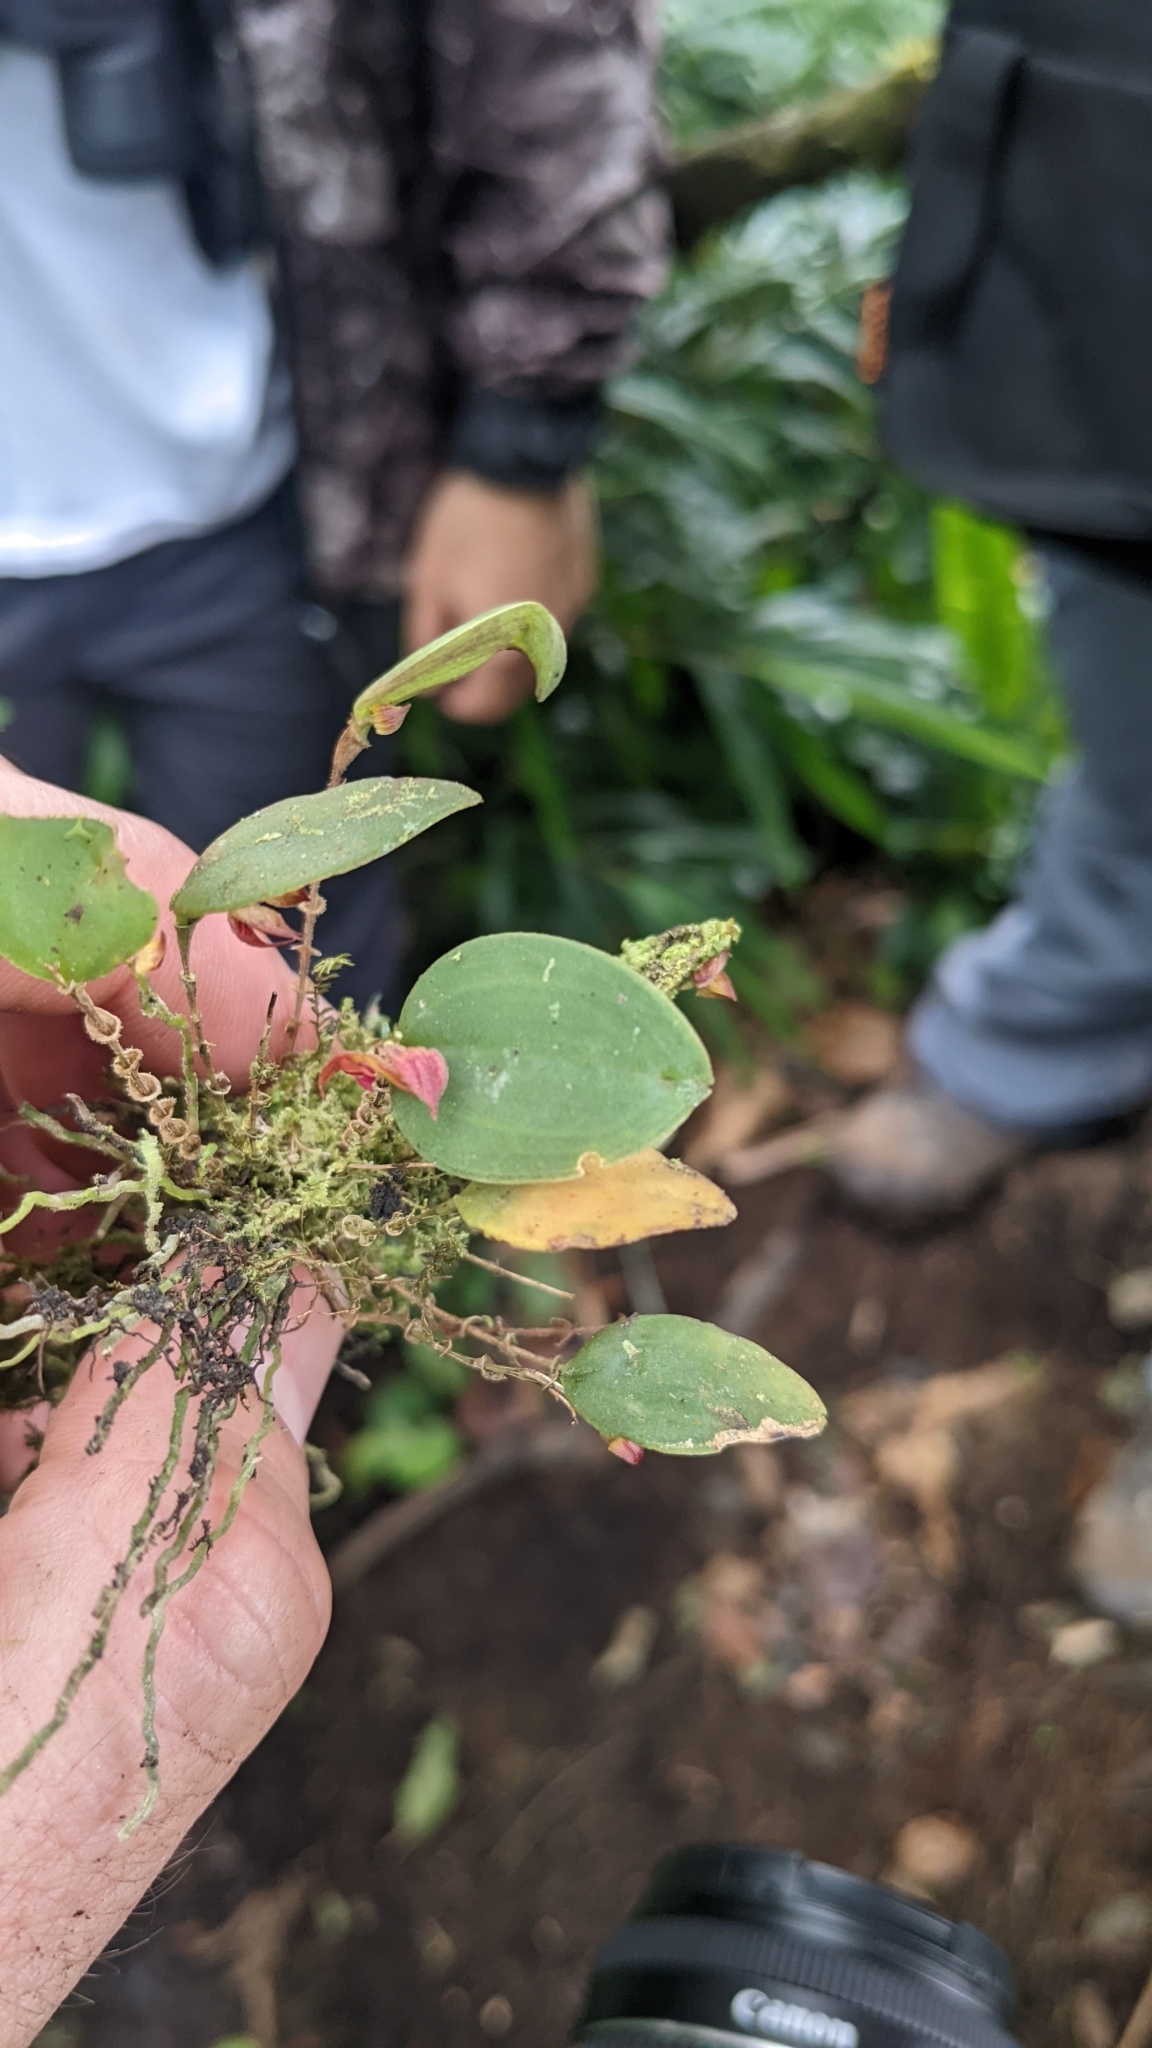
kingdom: Plantae
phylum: Tracheophyta
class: Liliopsida
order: Asparagales
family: Orchidaceae
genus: Lepanthes
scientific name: Lepanthes
